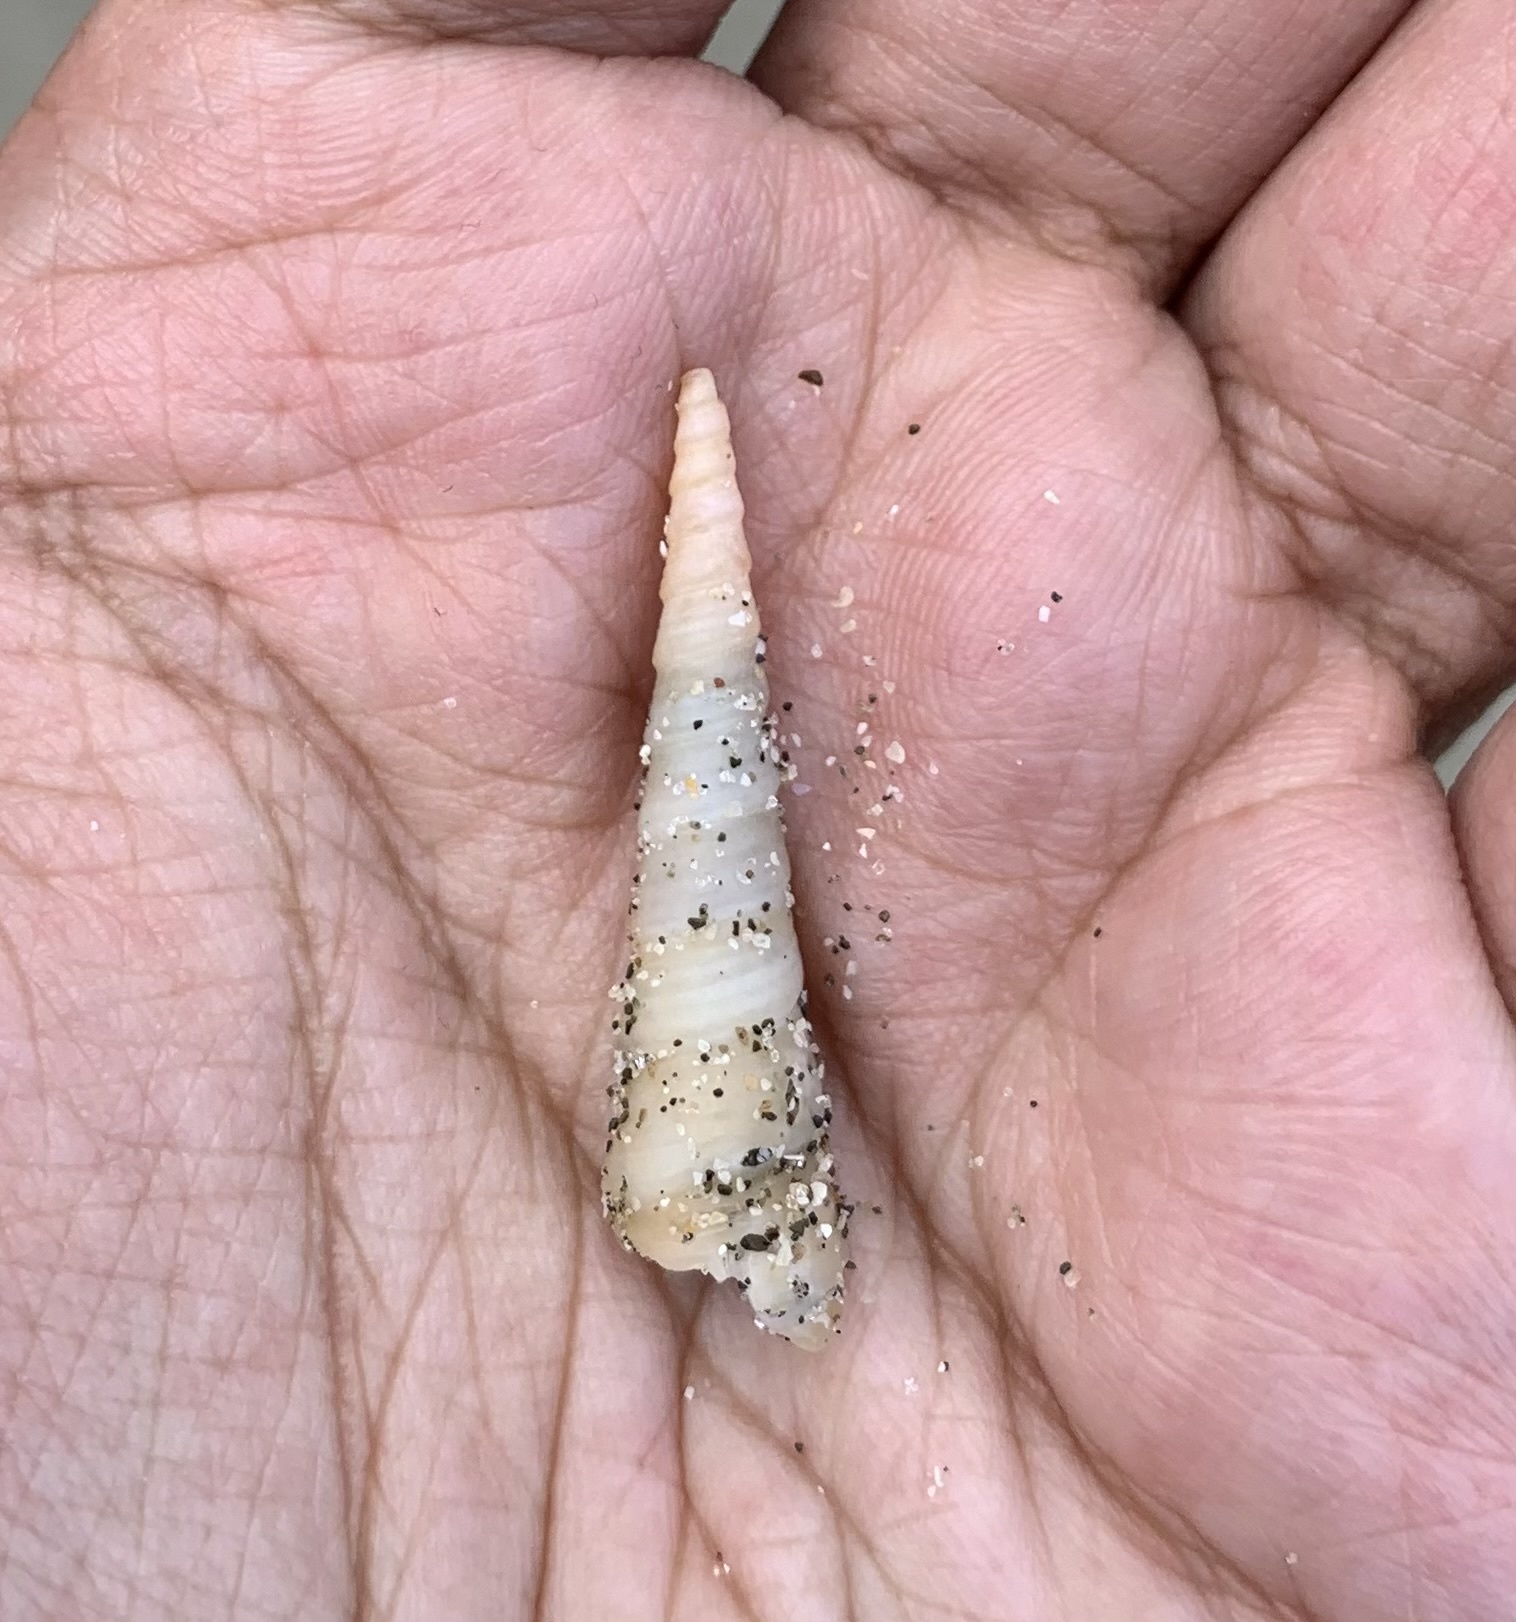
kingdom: Animalia
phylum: Mollusca
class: Gastropoda
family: Turritellidae
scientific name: Turritellidae
